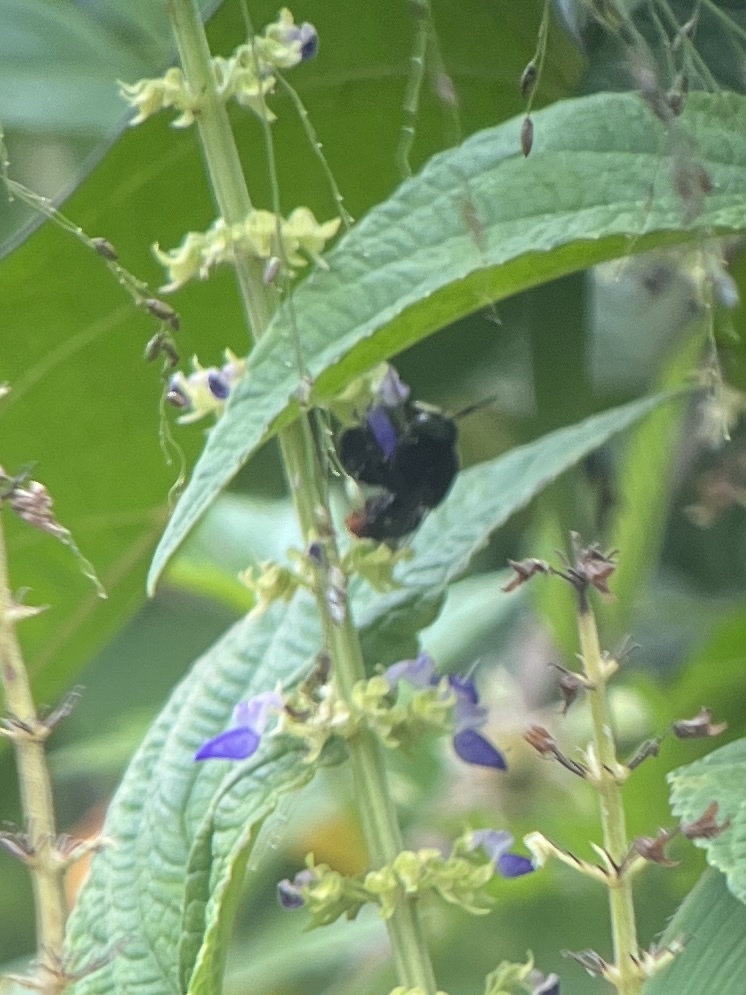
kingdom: Animalia
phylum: Arthropoda
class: Insecta
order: Hymenoptera
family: Apidae
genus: Centris
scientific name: Centris haemorrhoidalis
